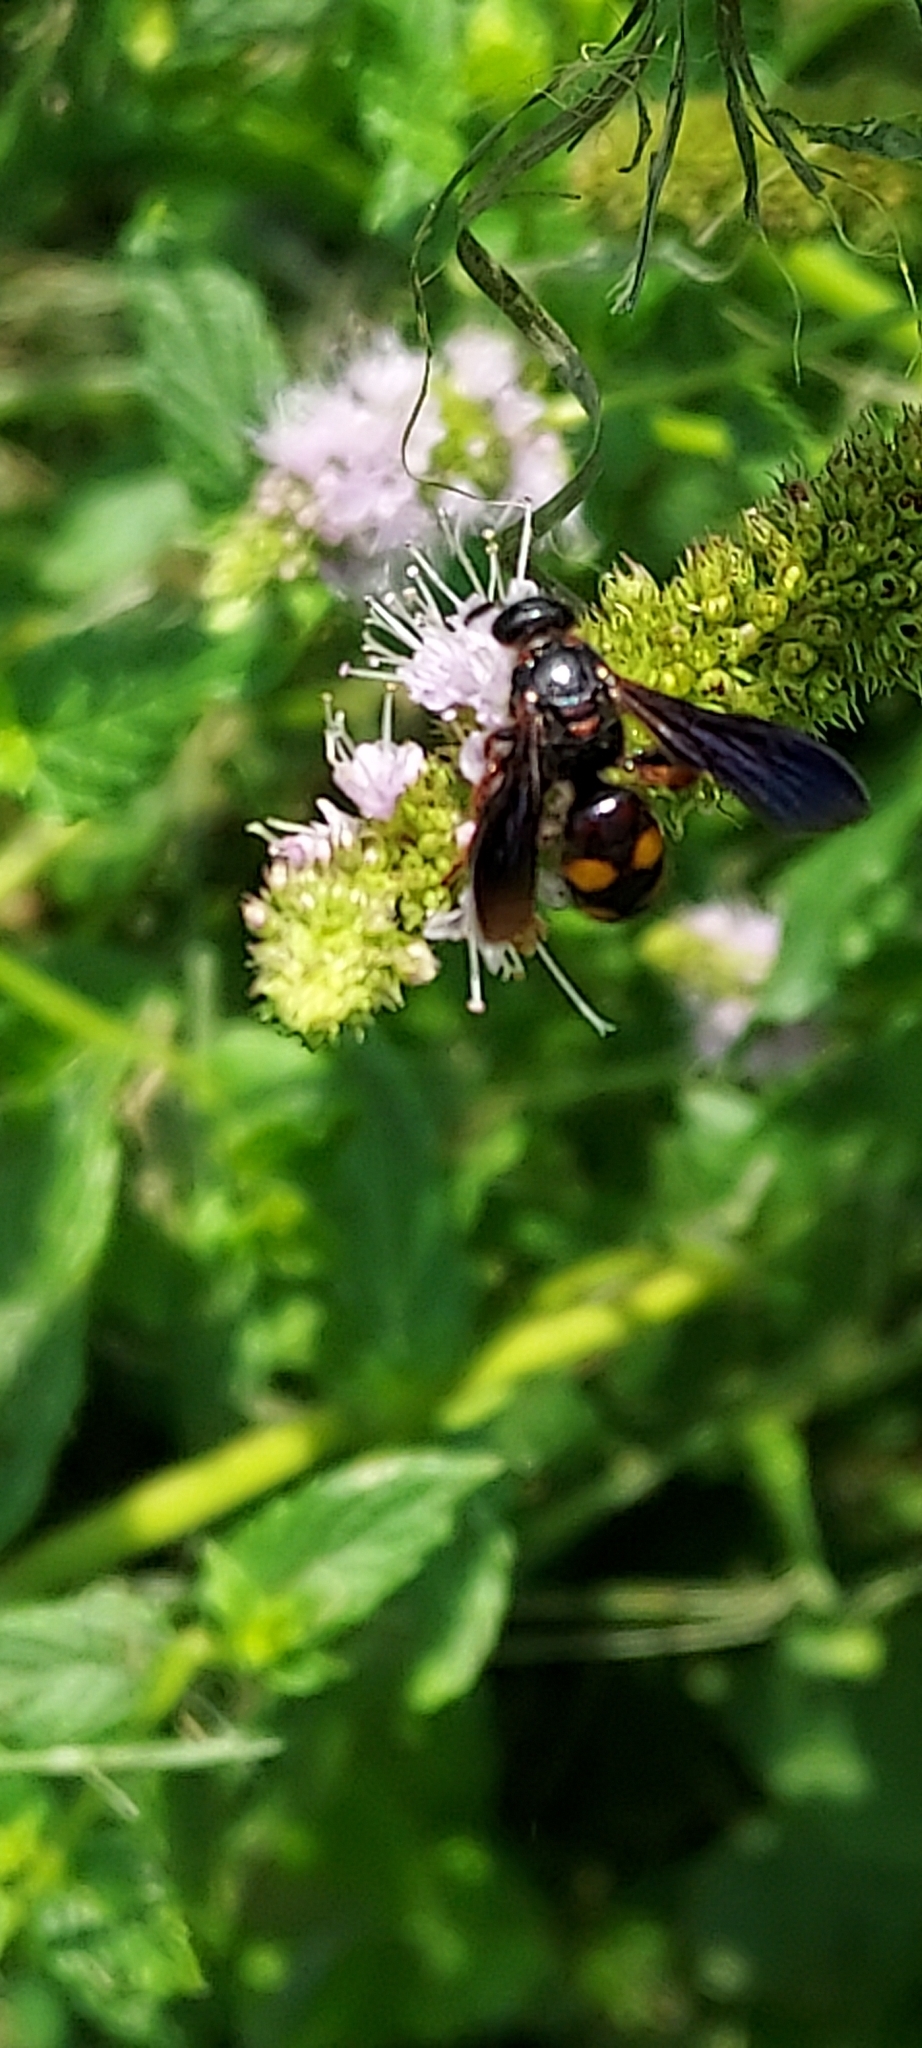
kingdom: Animalia
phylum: Arthropoda
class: Insecta
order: Hymenoptera
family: Scoliidae
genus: Scolia
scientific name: Scolia nobilitata
